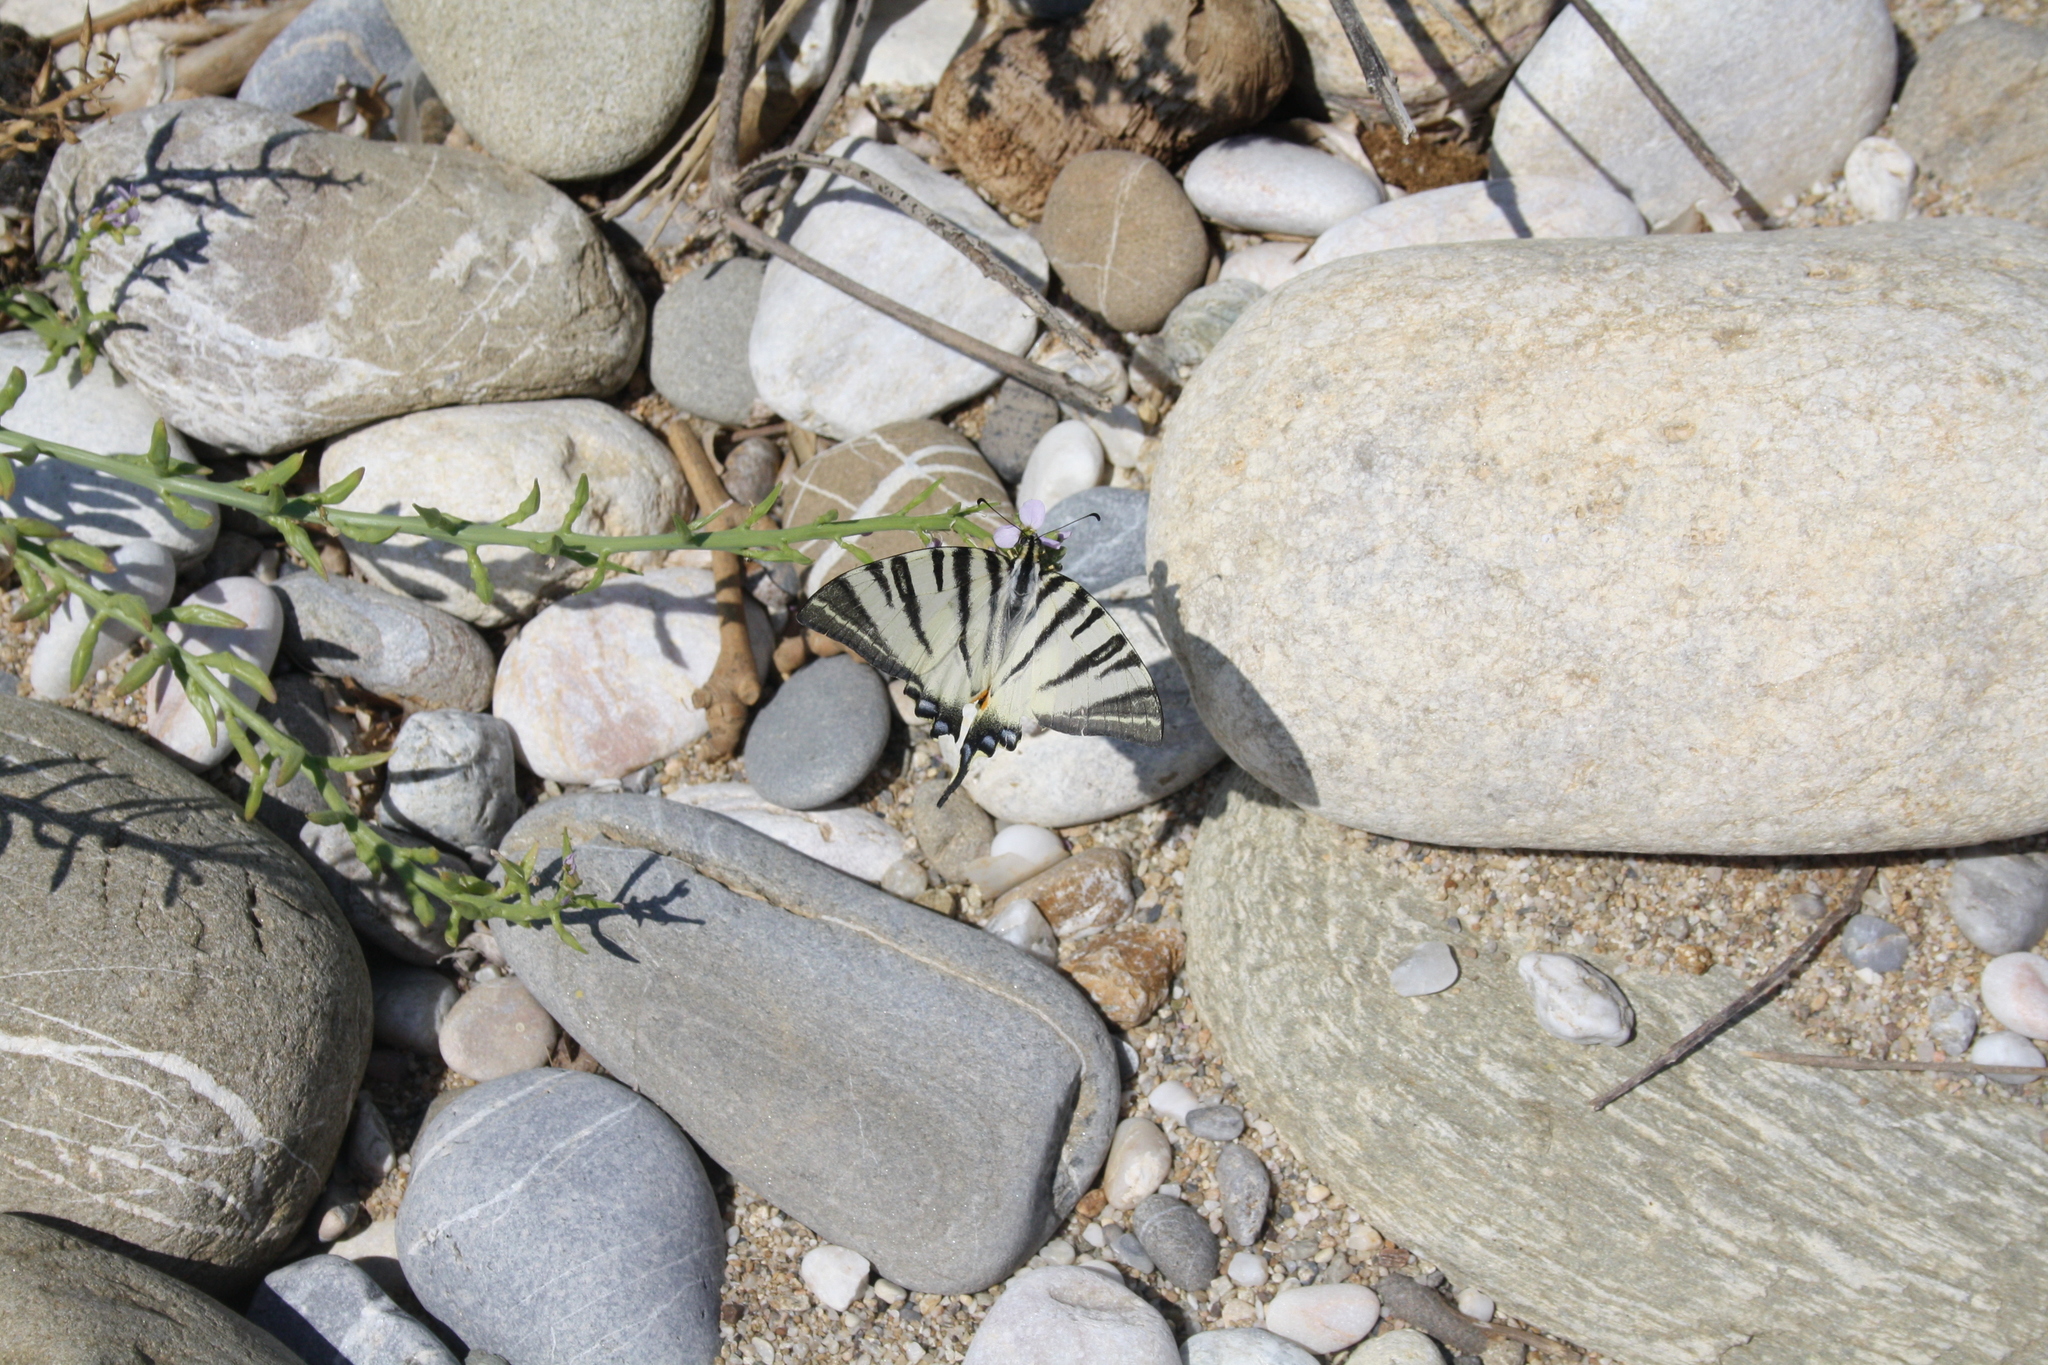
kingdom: Animalia
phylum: Arthropoda
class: Insecta
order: Lepidoptera
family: Papilionidae
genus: Iphiclides
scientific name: Iphiclides podalirius
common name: Scarce swallowtail
